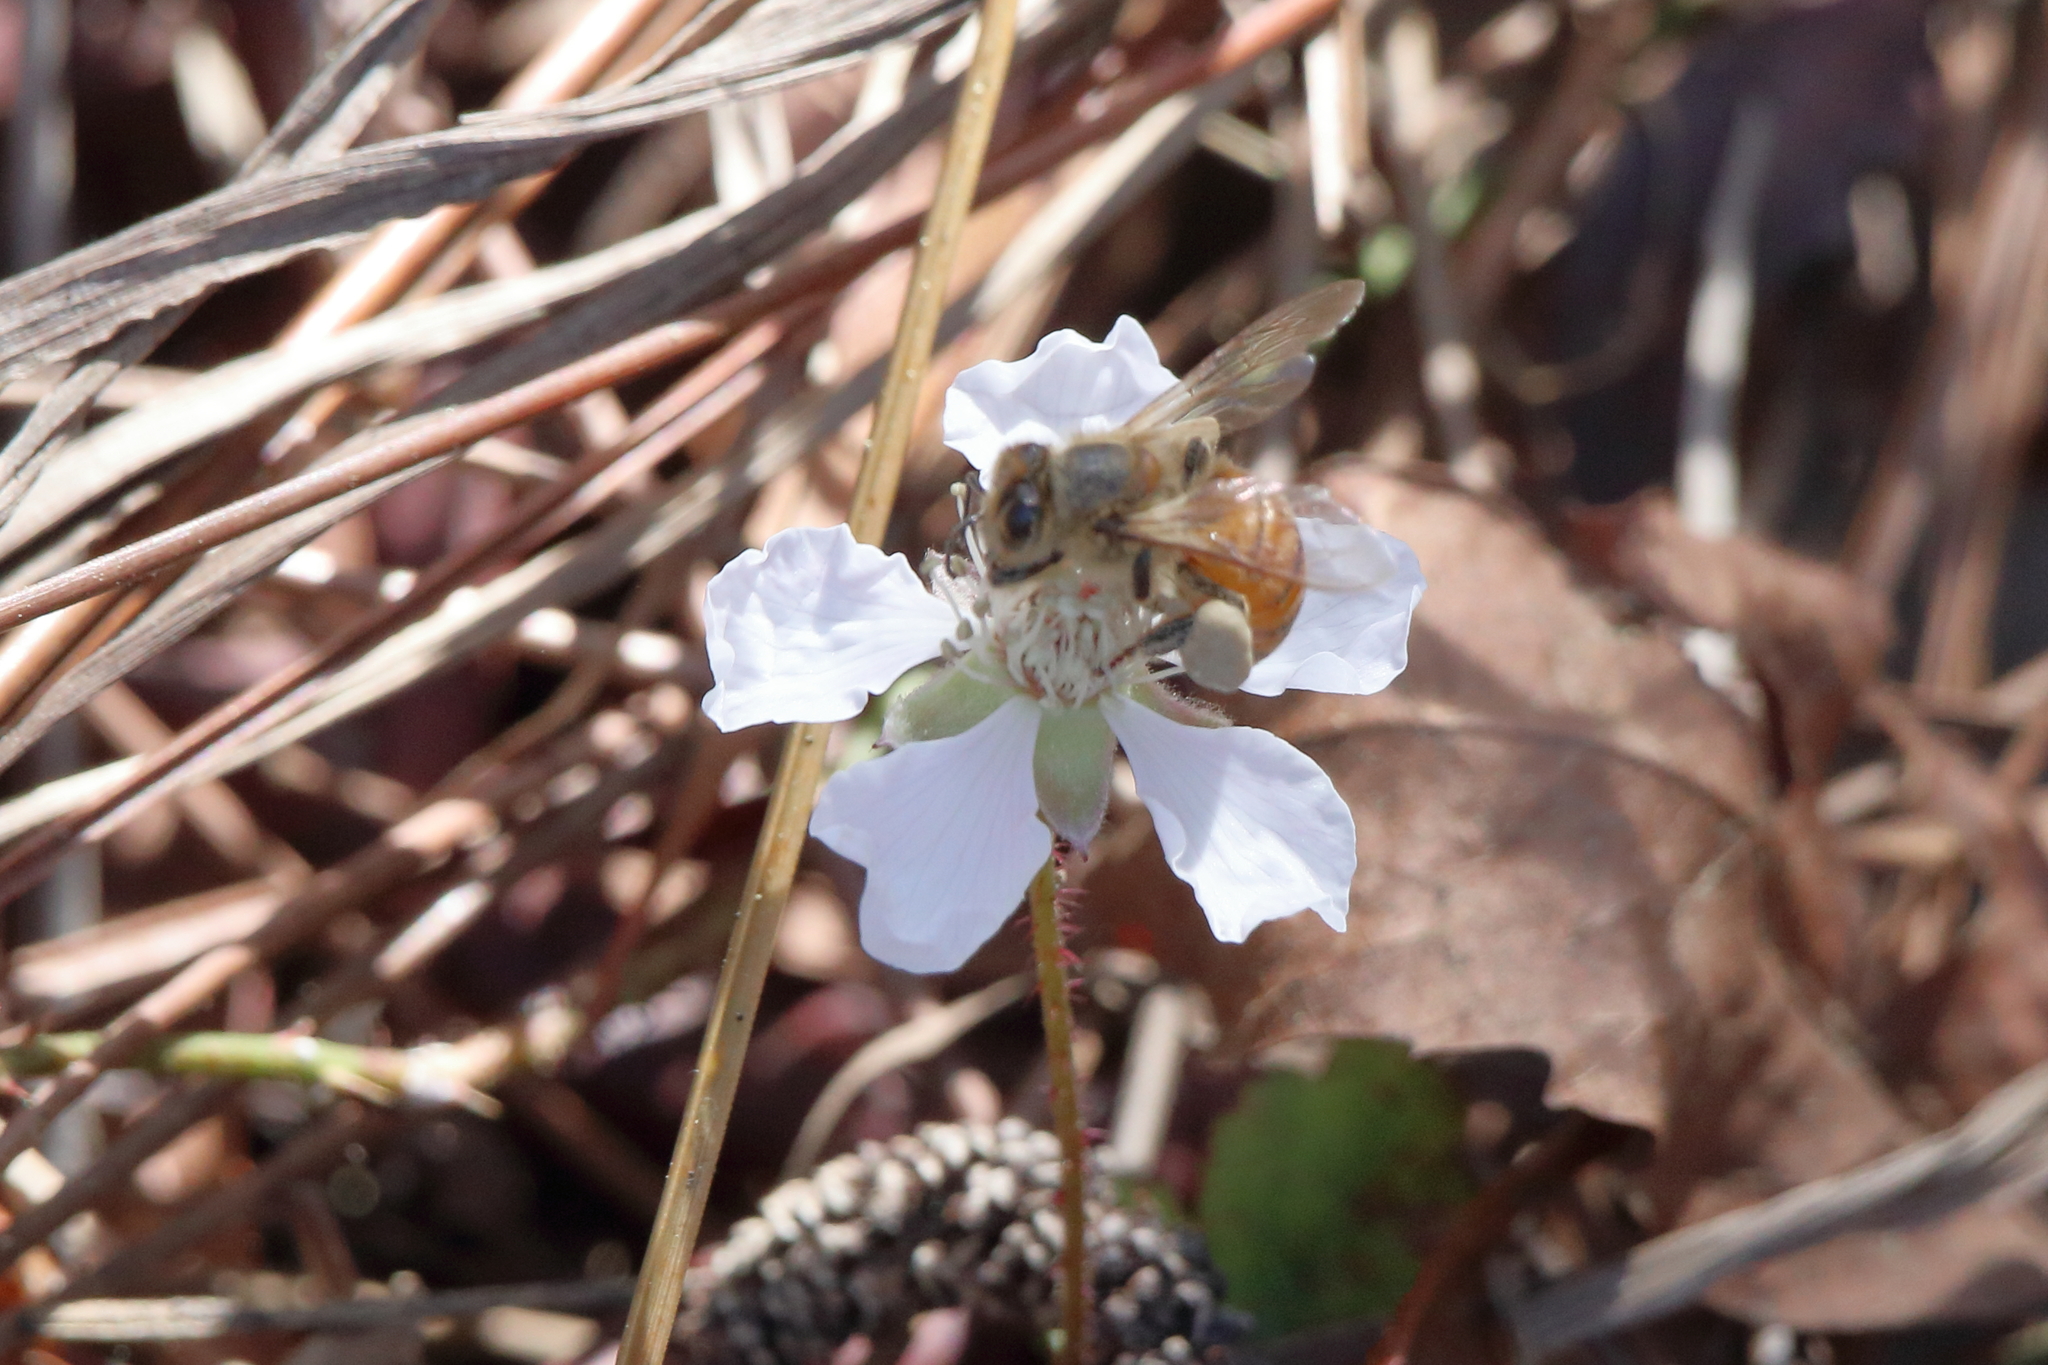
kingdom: Animalia
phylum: Arthropoda
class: Insecta
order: Hymenoptera
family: Apidae
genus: Apis
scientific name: Apis mellifera
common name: Honey bee
